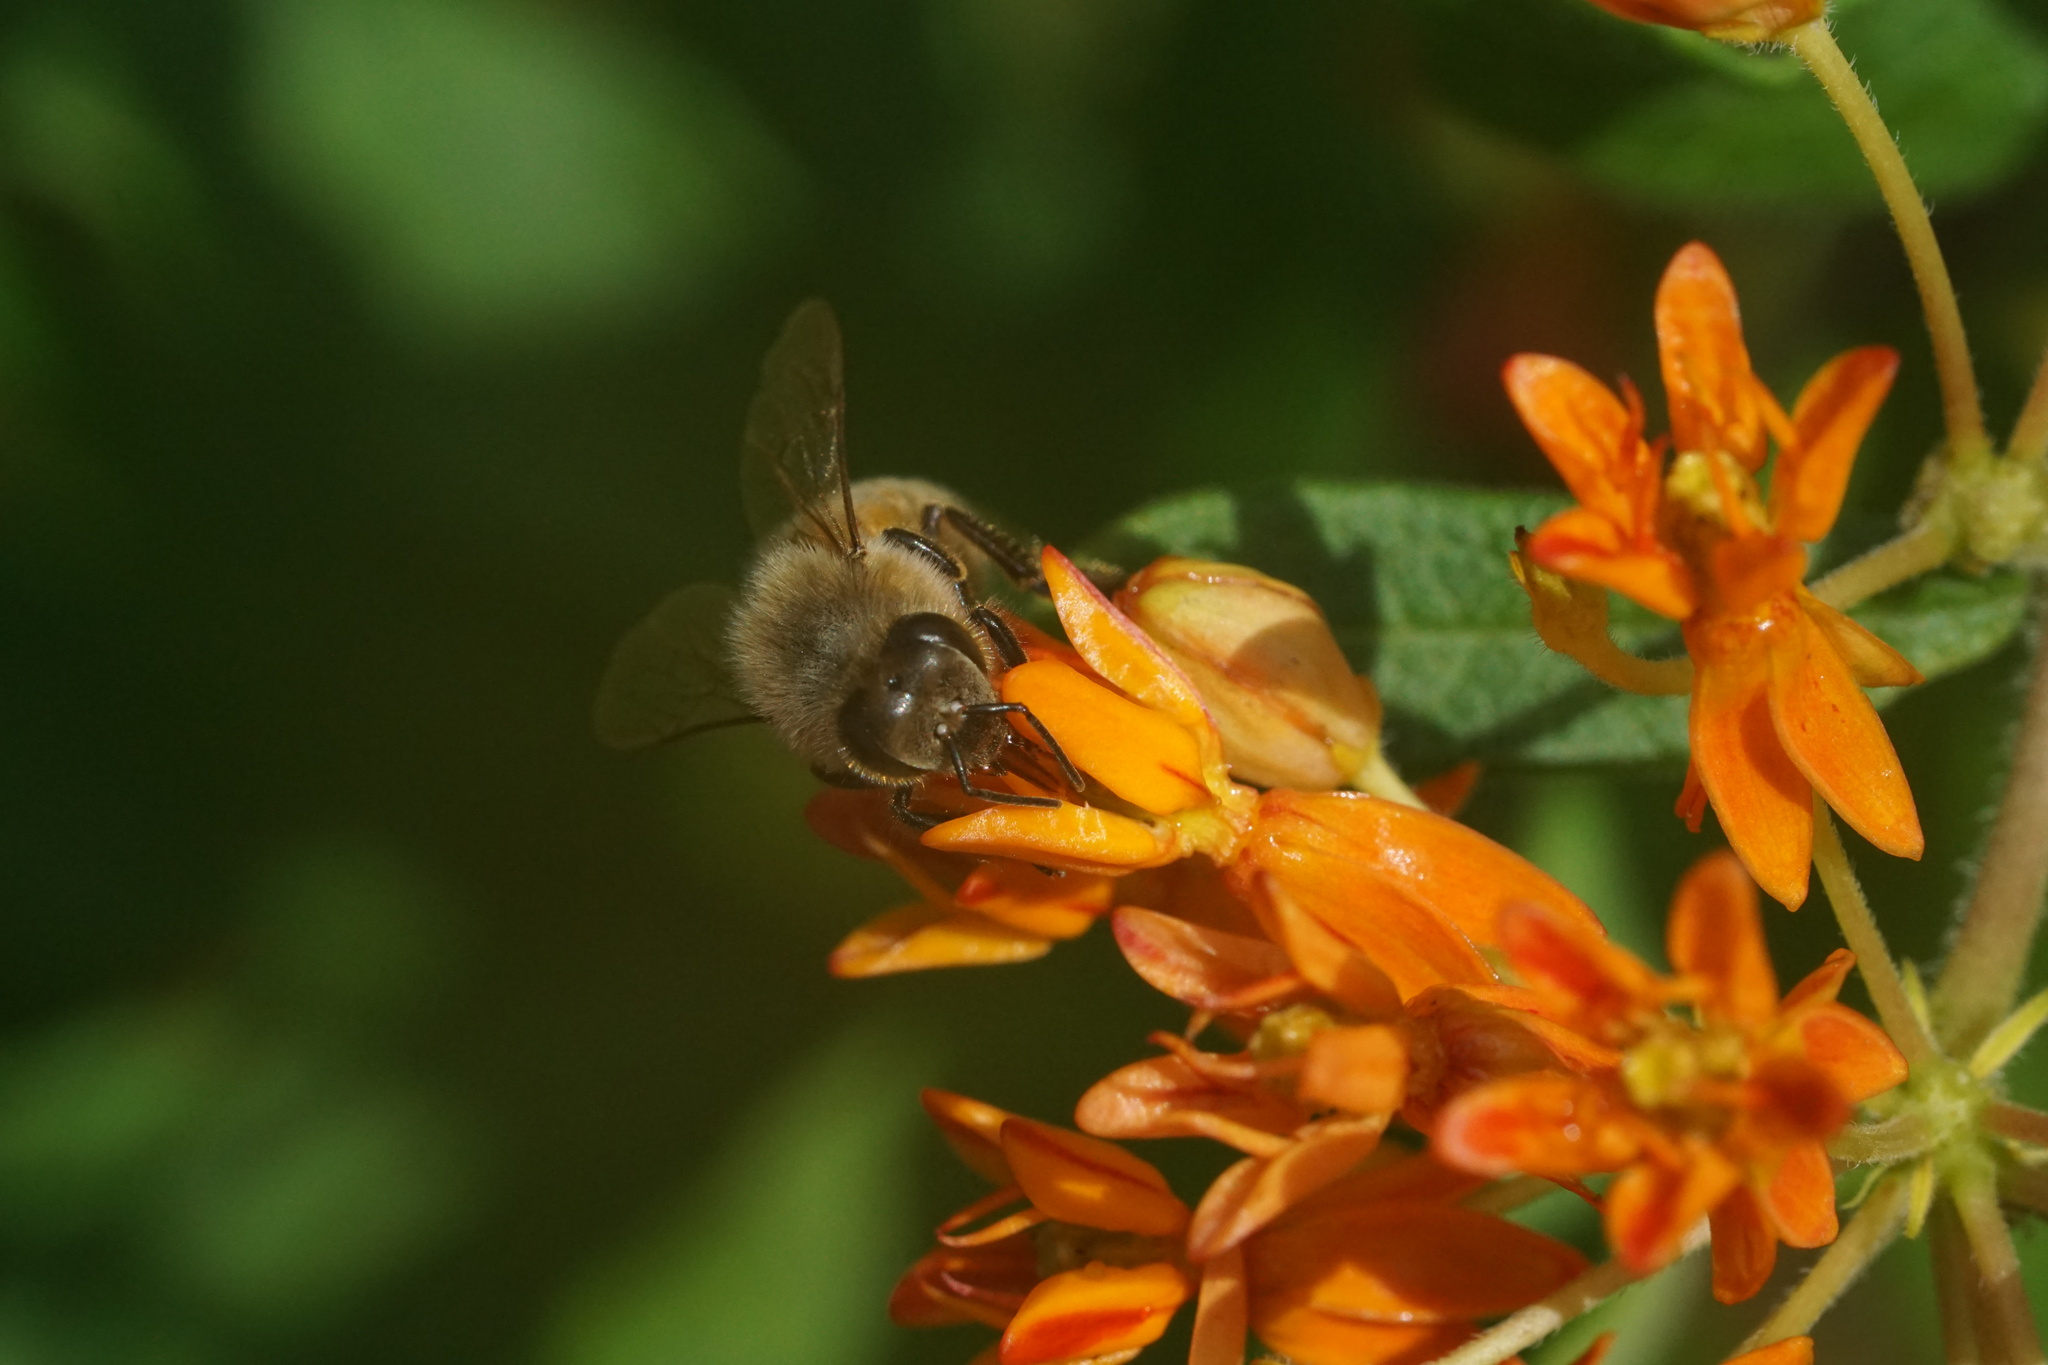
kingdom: Animalia
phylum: Arthropoda
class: Insecta
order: Hymenoptera
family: Apidae
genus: Apis
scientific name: Apis mellifera
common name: Honey bee
